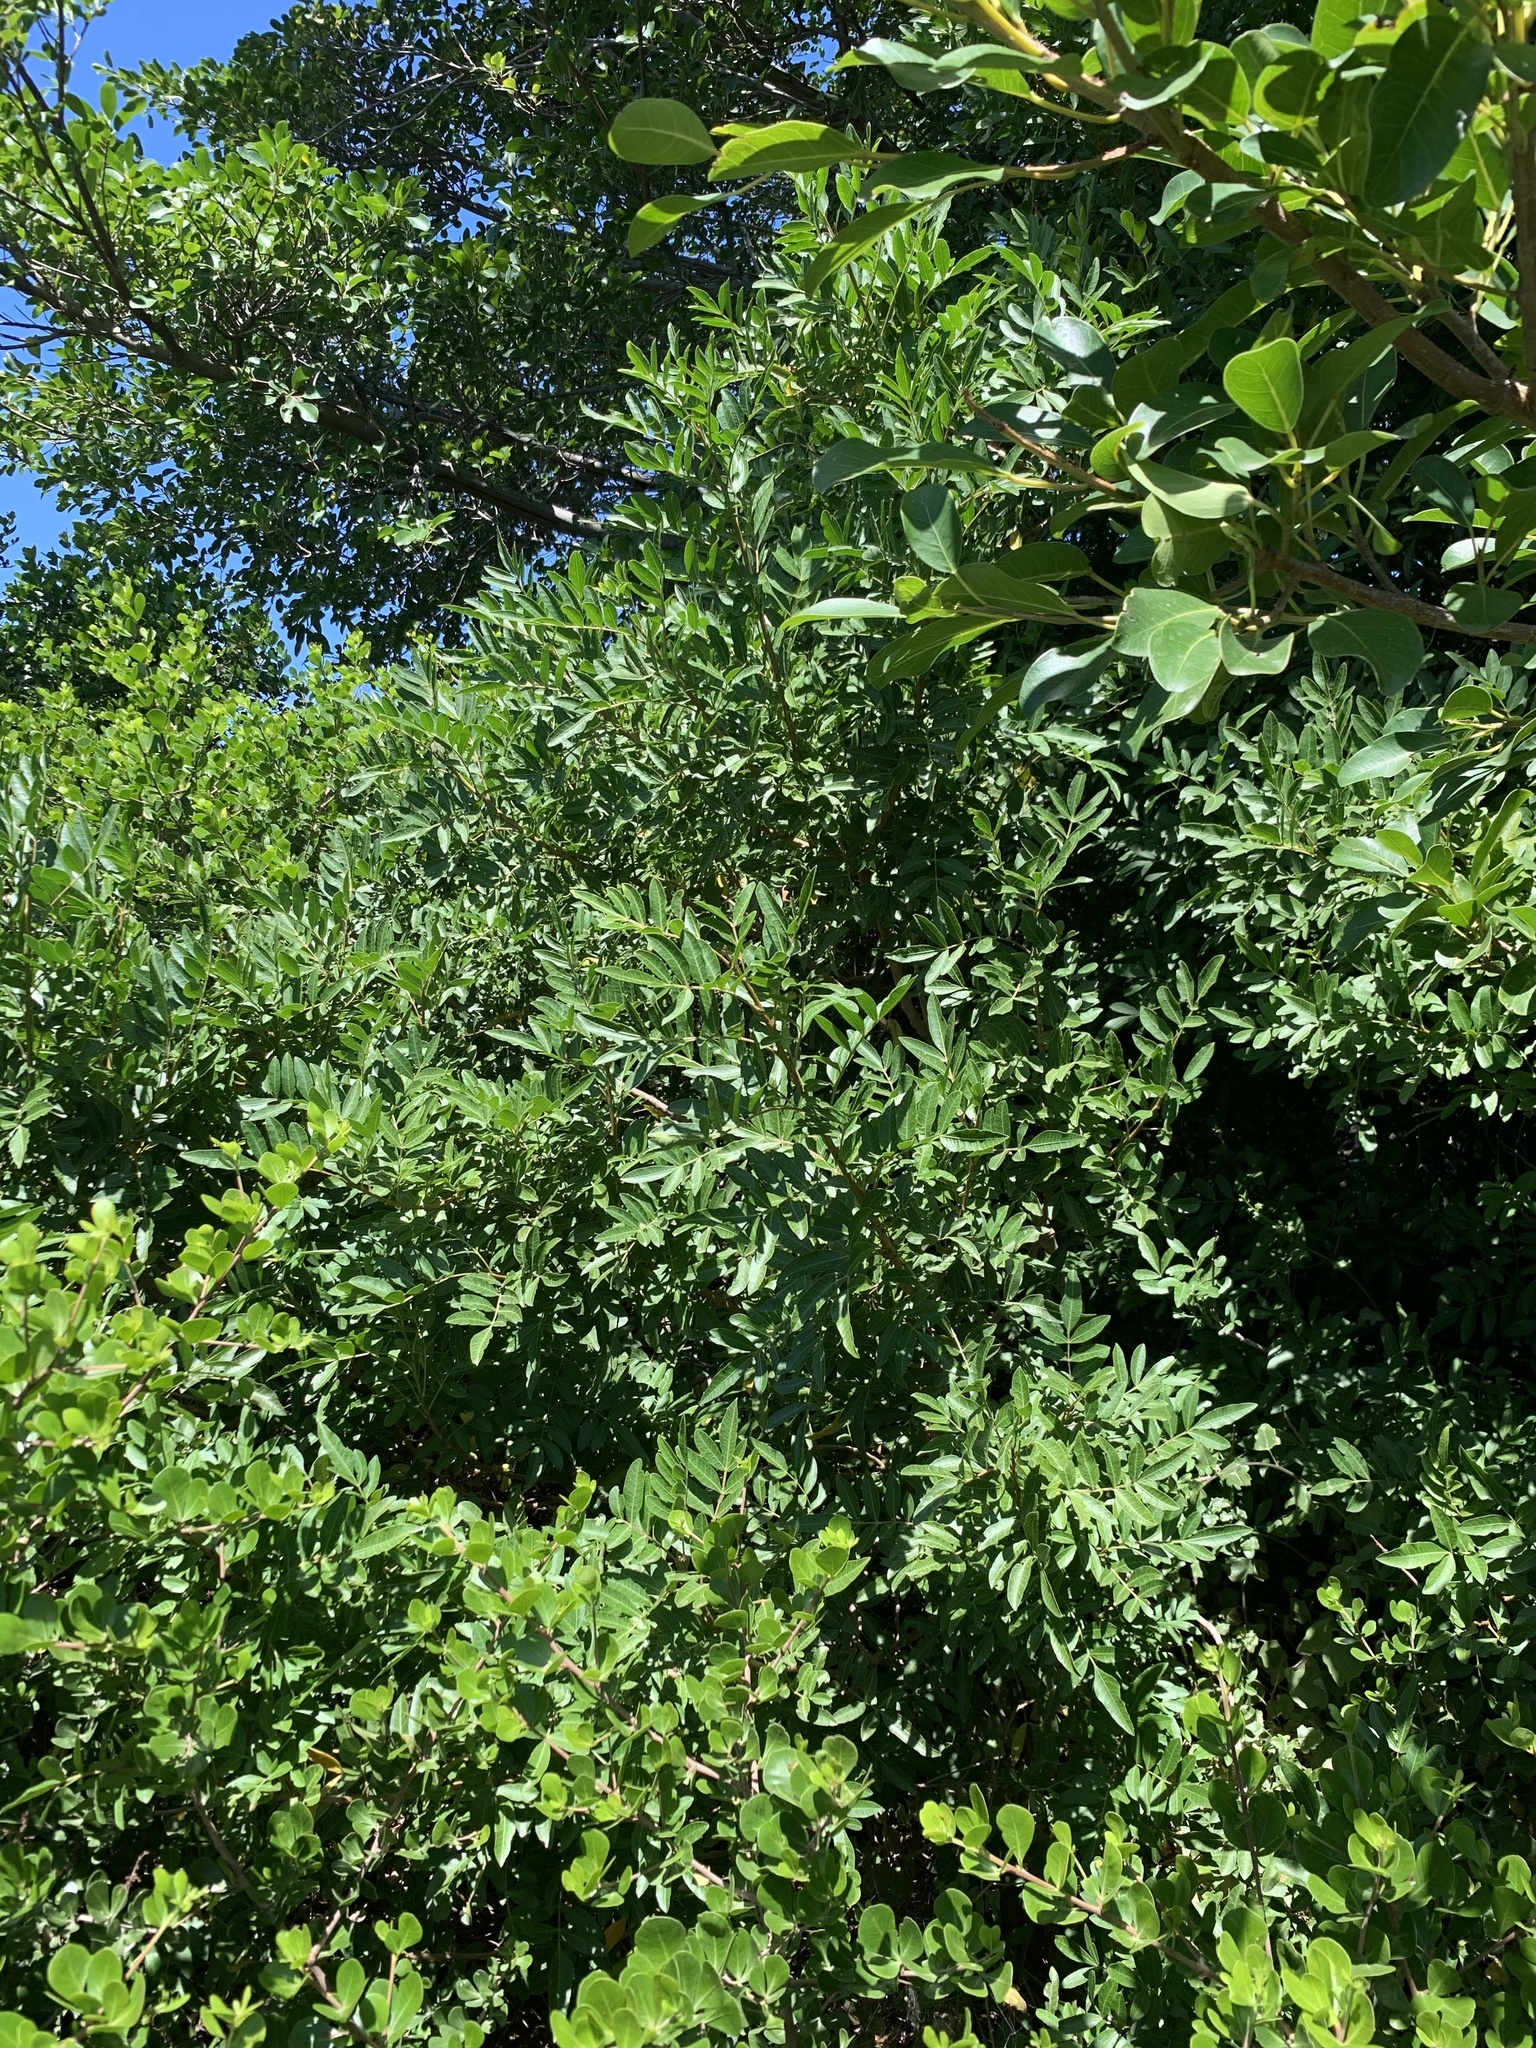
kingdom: Plantae
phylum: Tracheophyta
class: Magnoliopsida
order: Sapindales
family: Anacardiaceae
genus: Schinus
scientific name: Schinus terebinthifolia
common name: Brazilian peppertree
